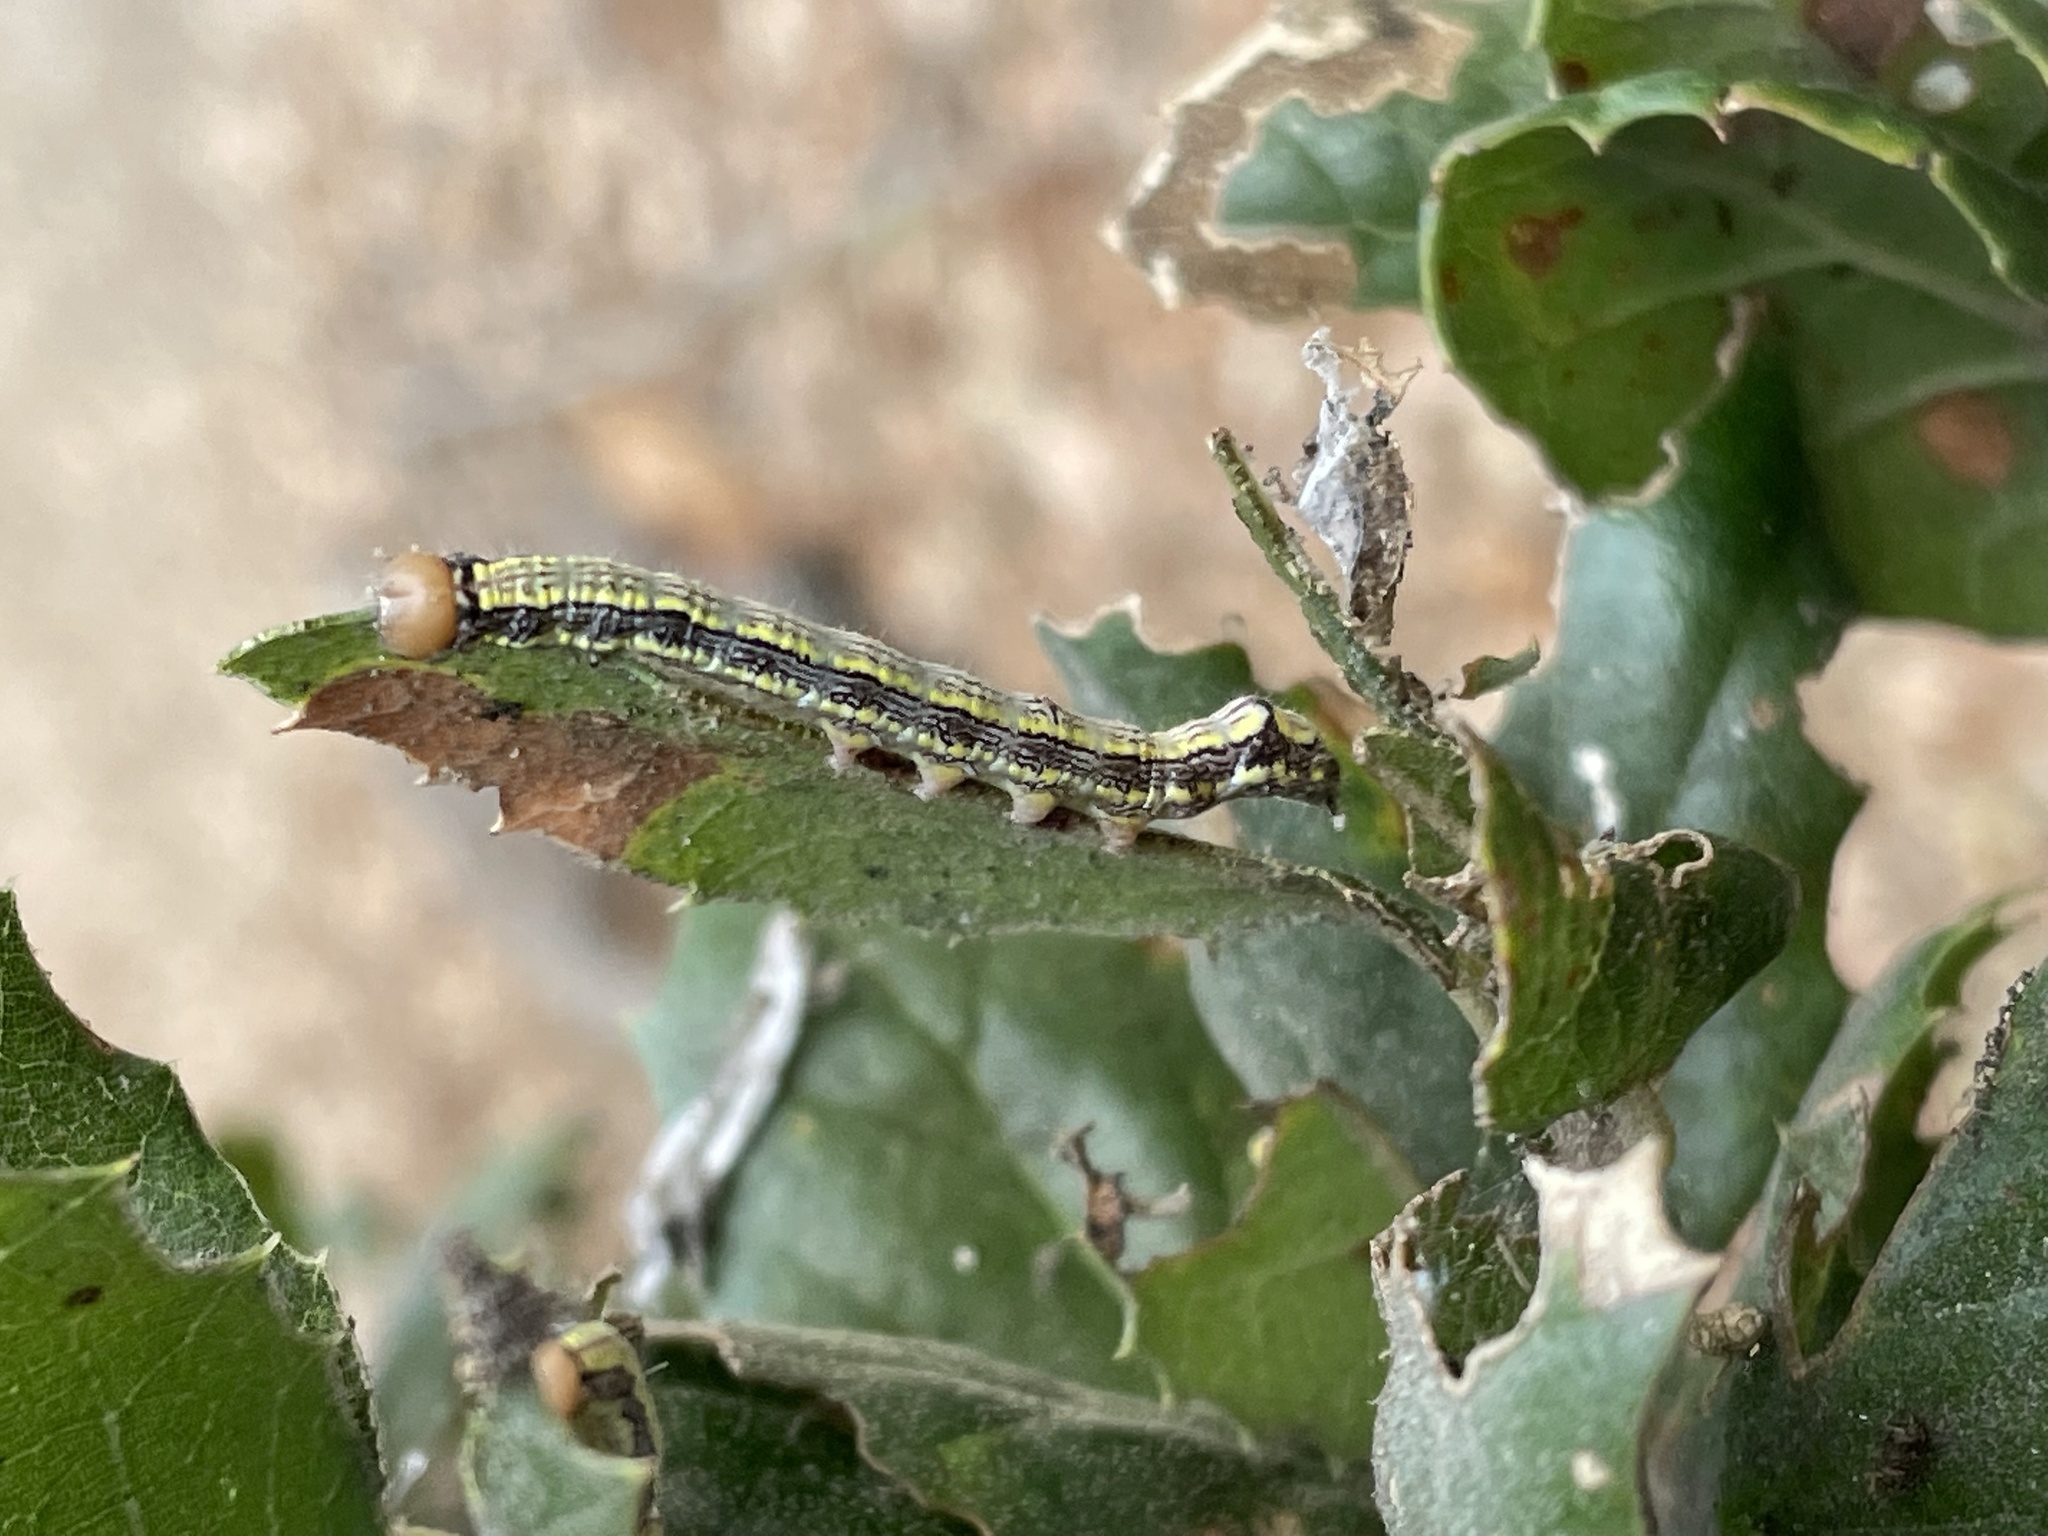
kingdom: Plantae
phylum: Tracheophyta
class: Magnoliopsida
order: Fagales
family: Fagaceae
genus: Quercus
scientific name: Quercus agrifolia
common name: California live oak
